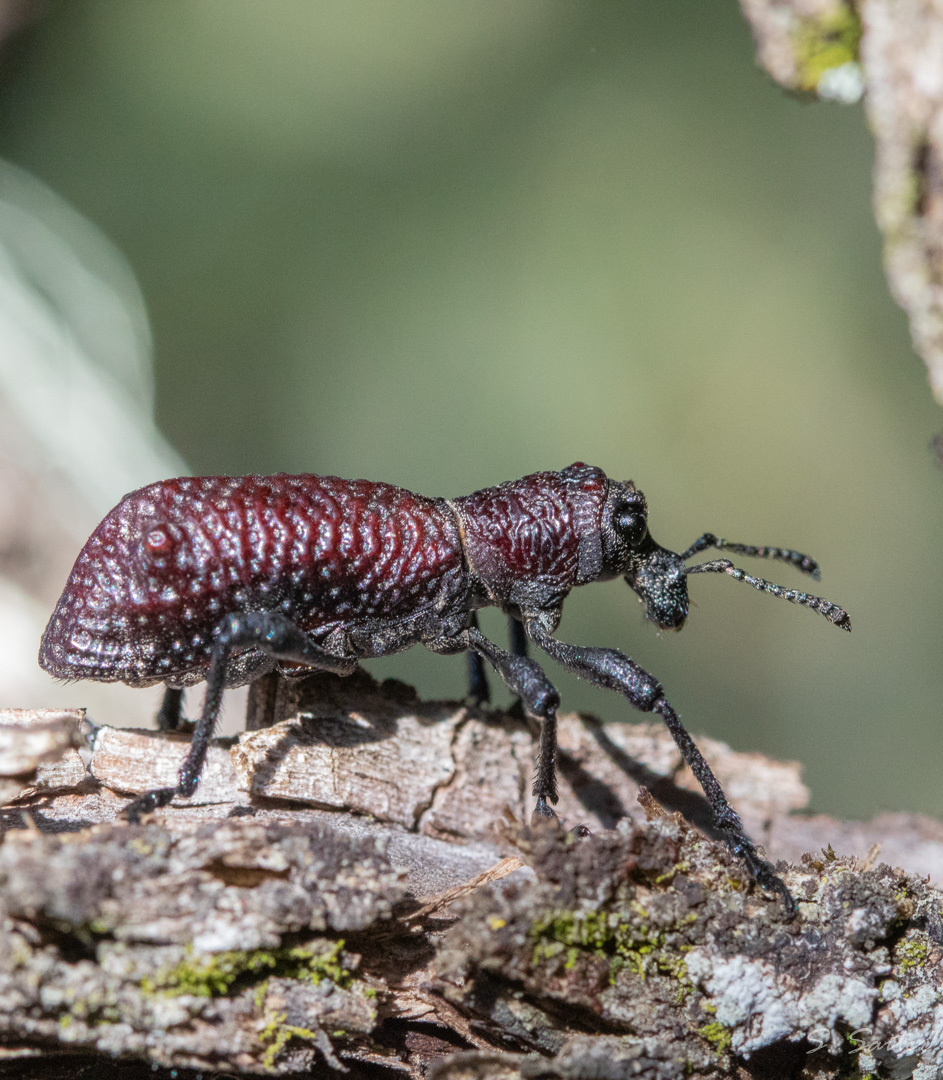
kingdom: Animalia
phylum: Arthropoda
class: Insecta
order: Coleoptera
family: Curculionidae
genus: Aegorhinus
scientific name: Aegorhinus vitulus
